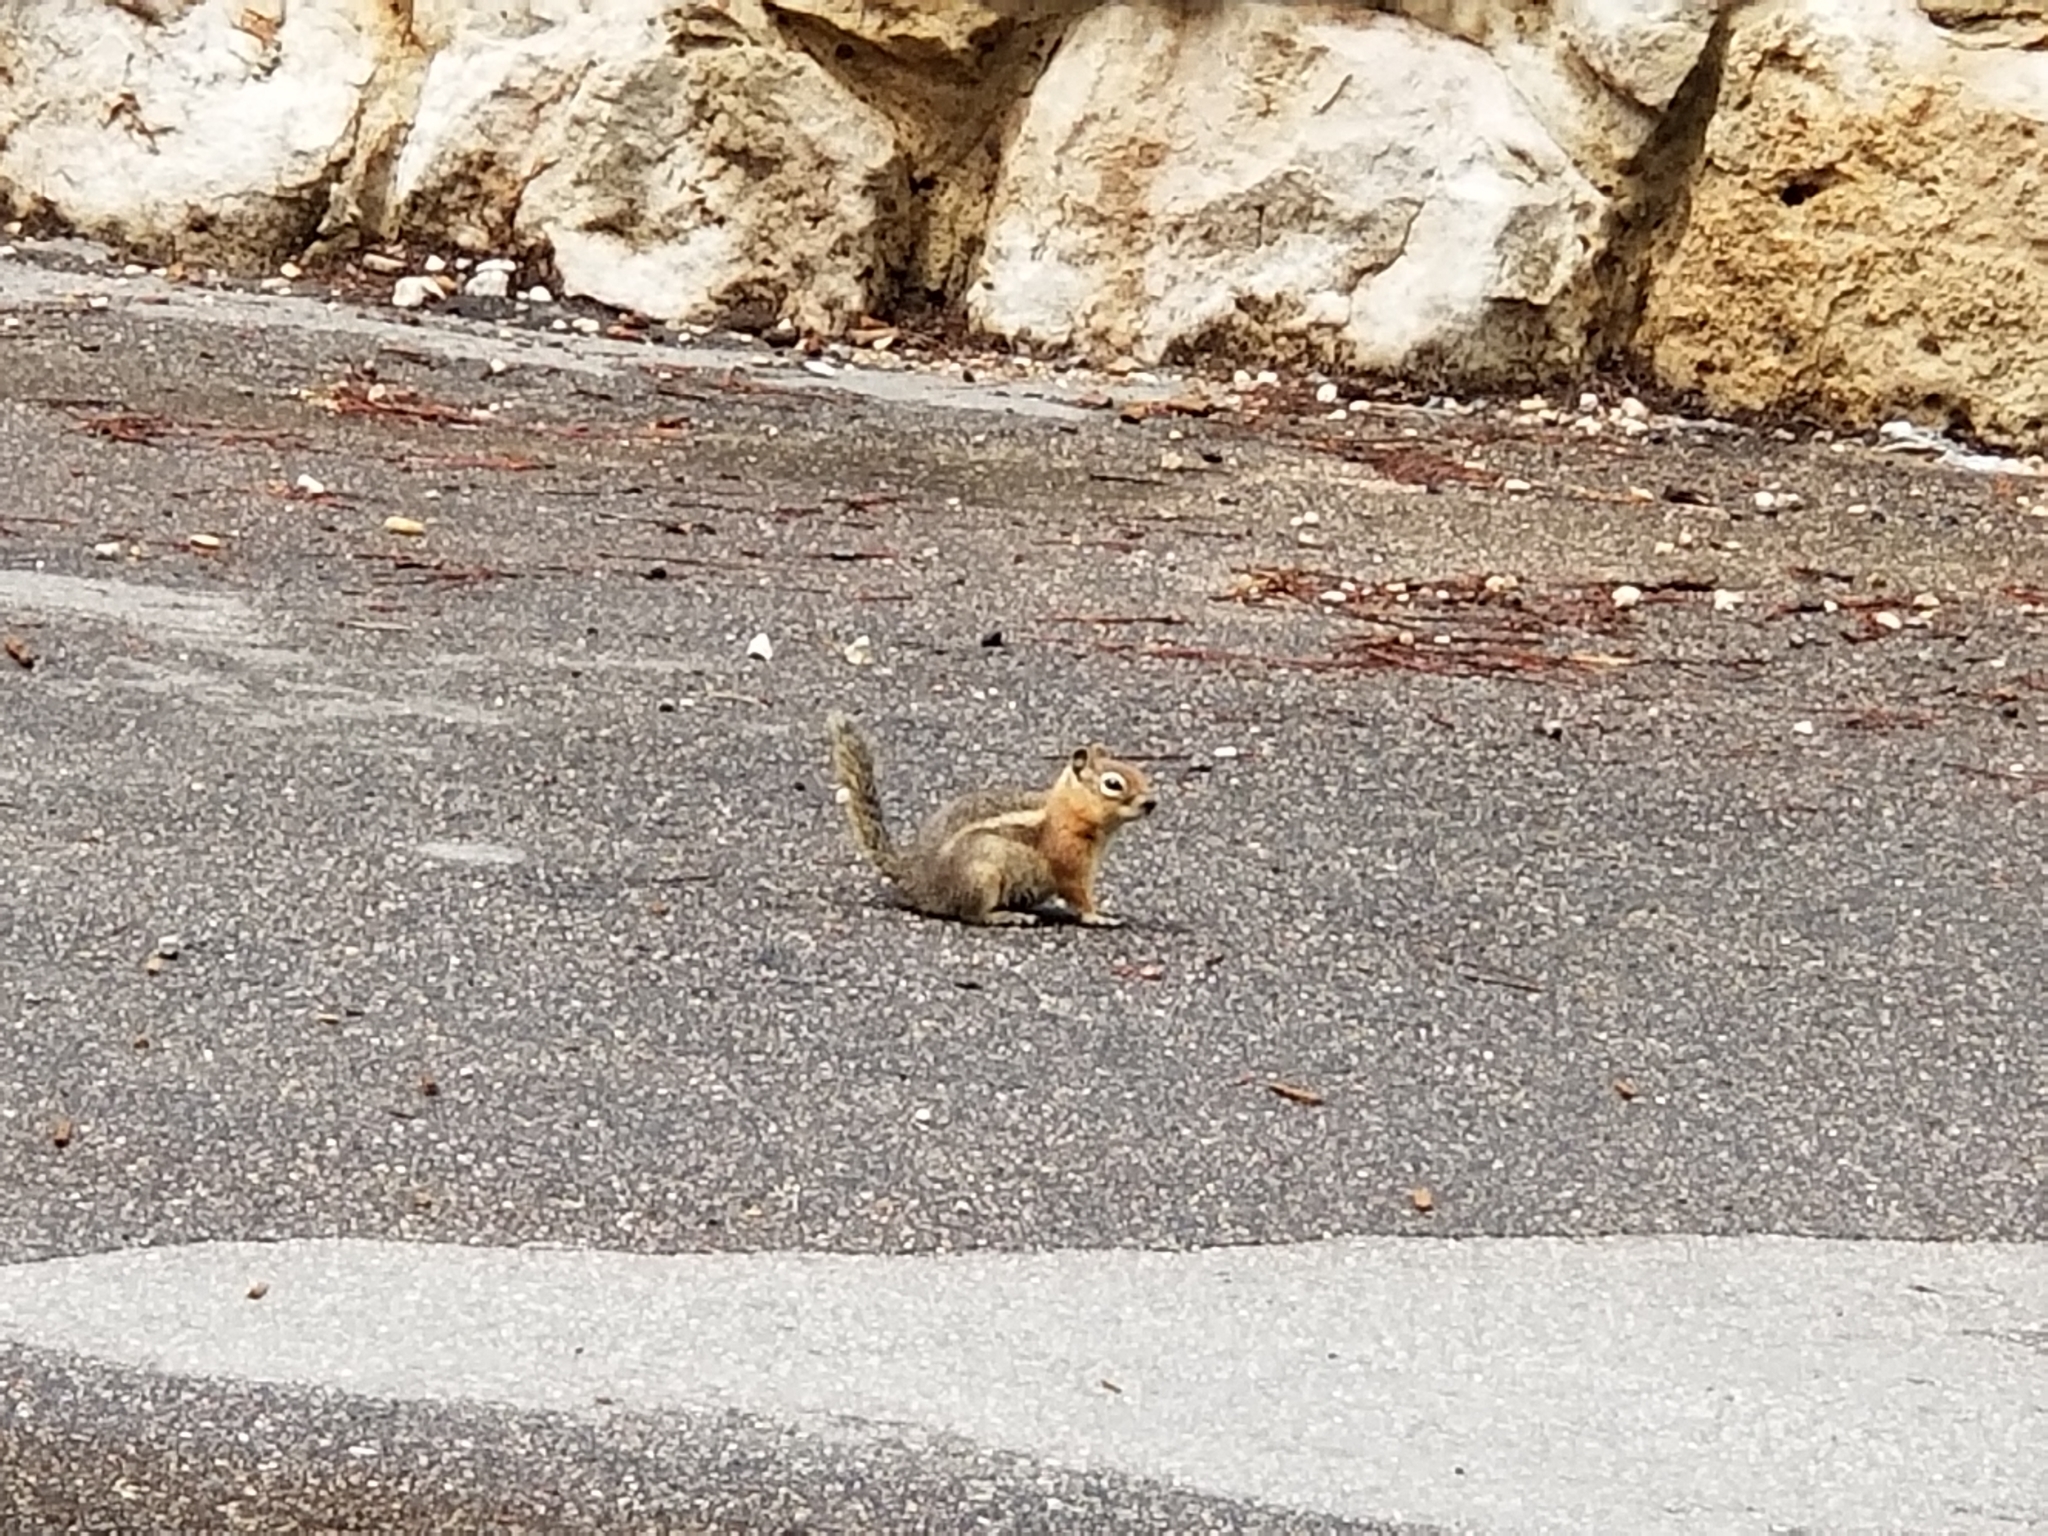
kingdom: Animalia
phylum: Chordata
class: Mammalia
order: Rodentia
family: Sciuridae
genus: Callospermophilus
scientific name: Callospermophilus lateralis
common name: Golden-mantled ground squirrel
